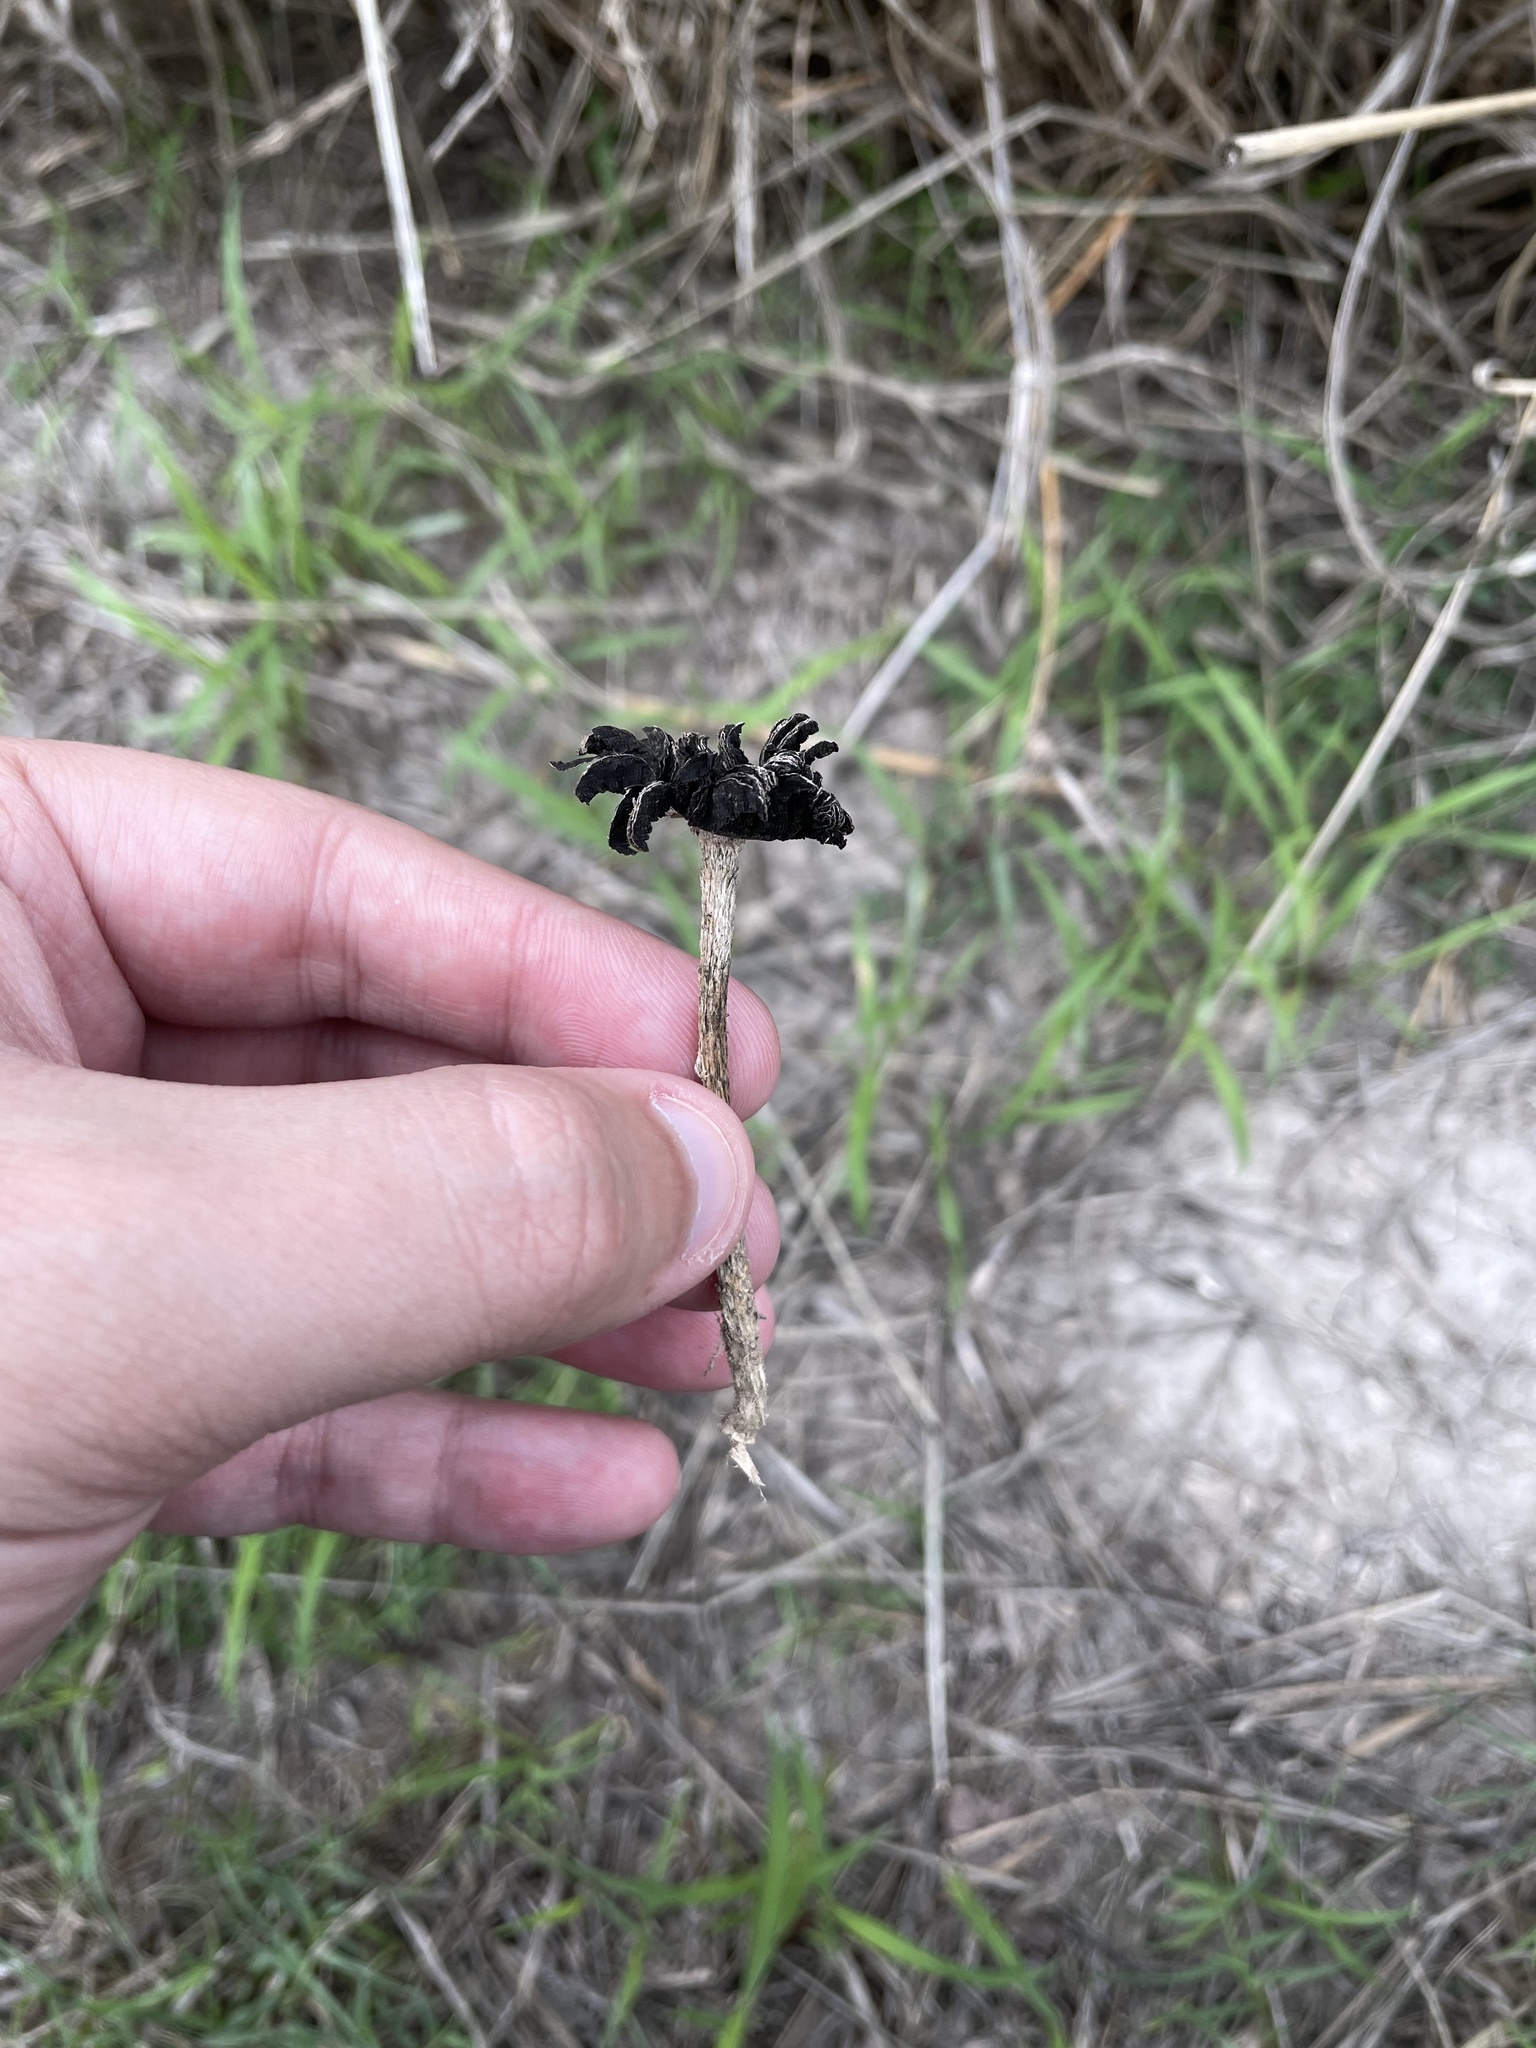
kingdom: Fungi
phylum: Basidiomycota
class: Agaricomycetes
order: Agaricales
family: Agaricaceae
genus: Montagnea
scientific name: Montagnea arenaria
